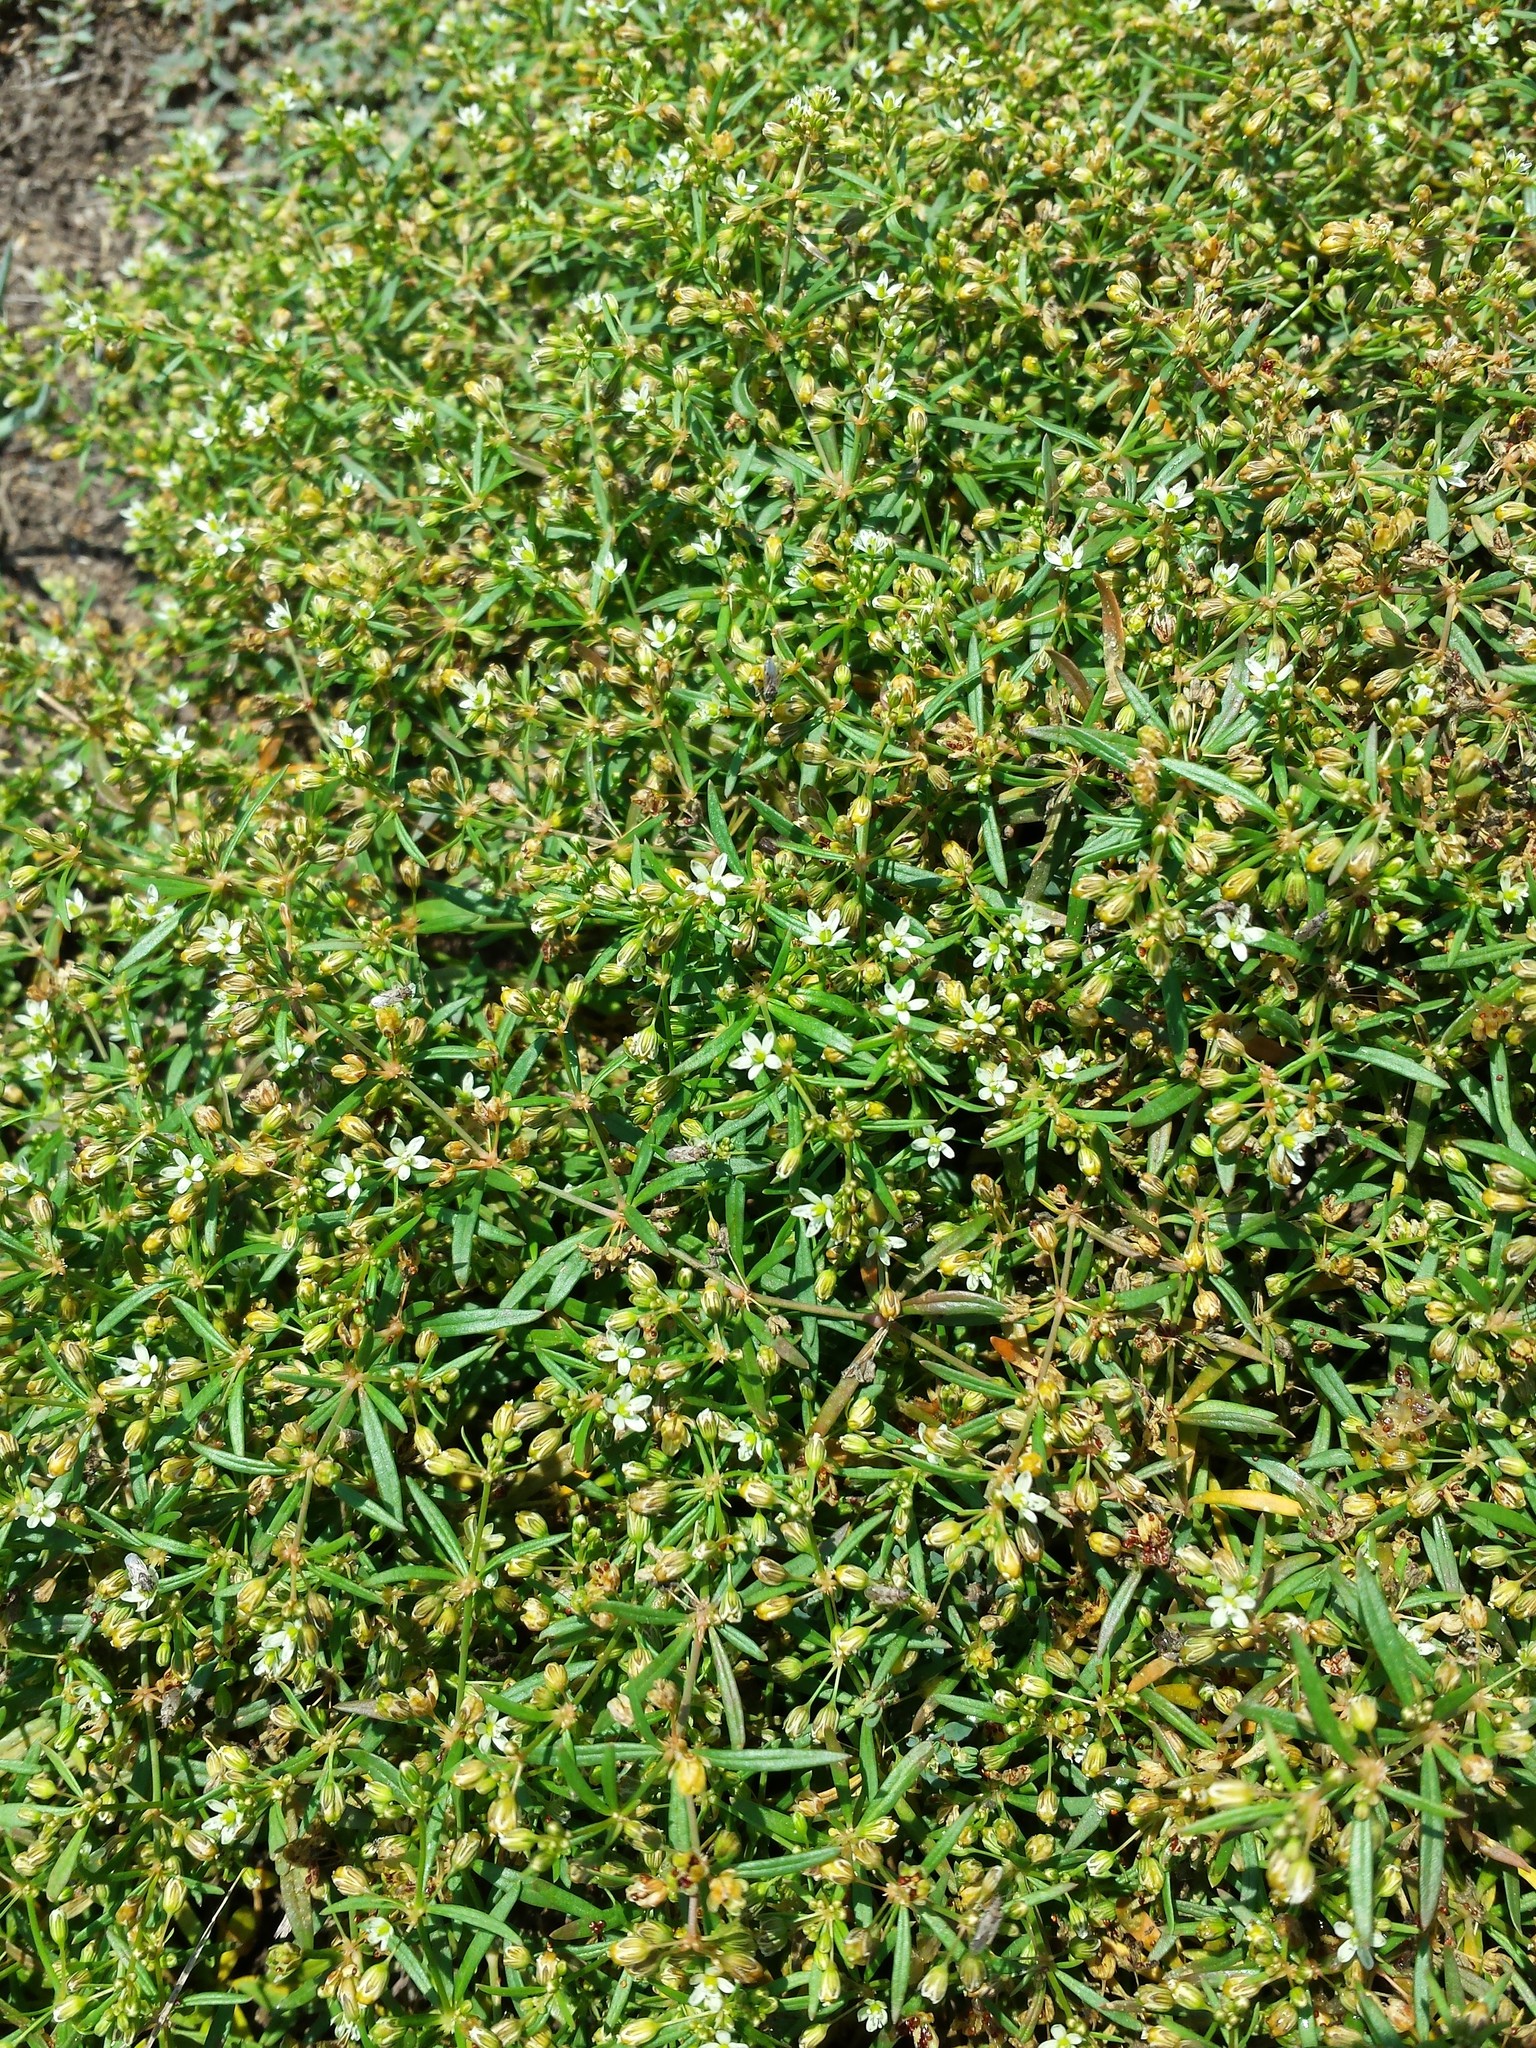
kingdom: Plantae
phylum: Tracheophyta
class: Magnoliopsida
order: Caryophyllales
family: Molluginaceae
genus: Mollugo
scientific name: Mollugo verticillata
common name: Green carpetweed
